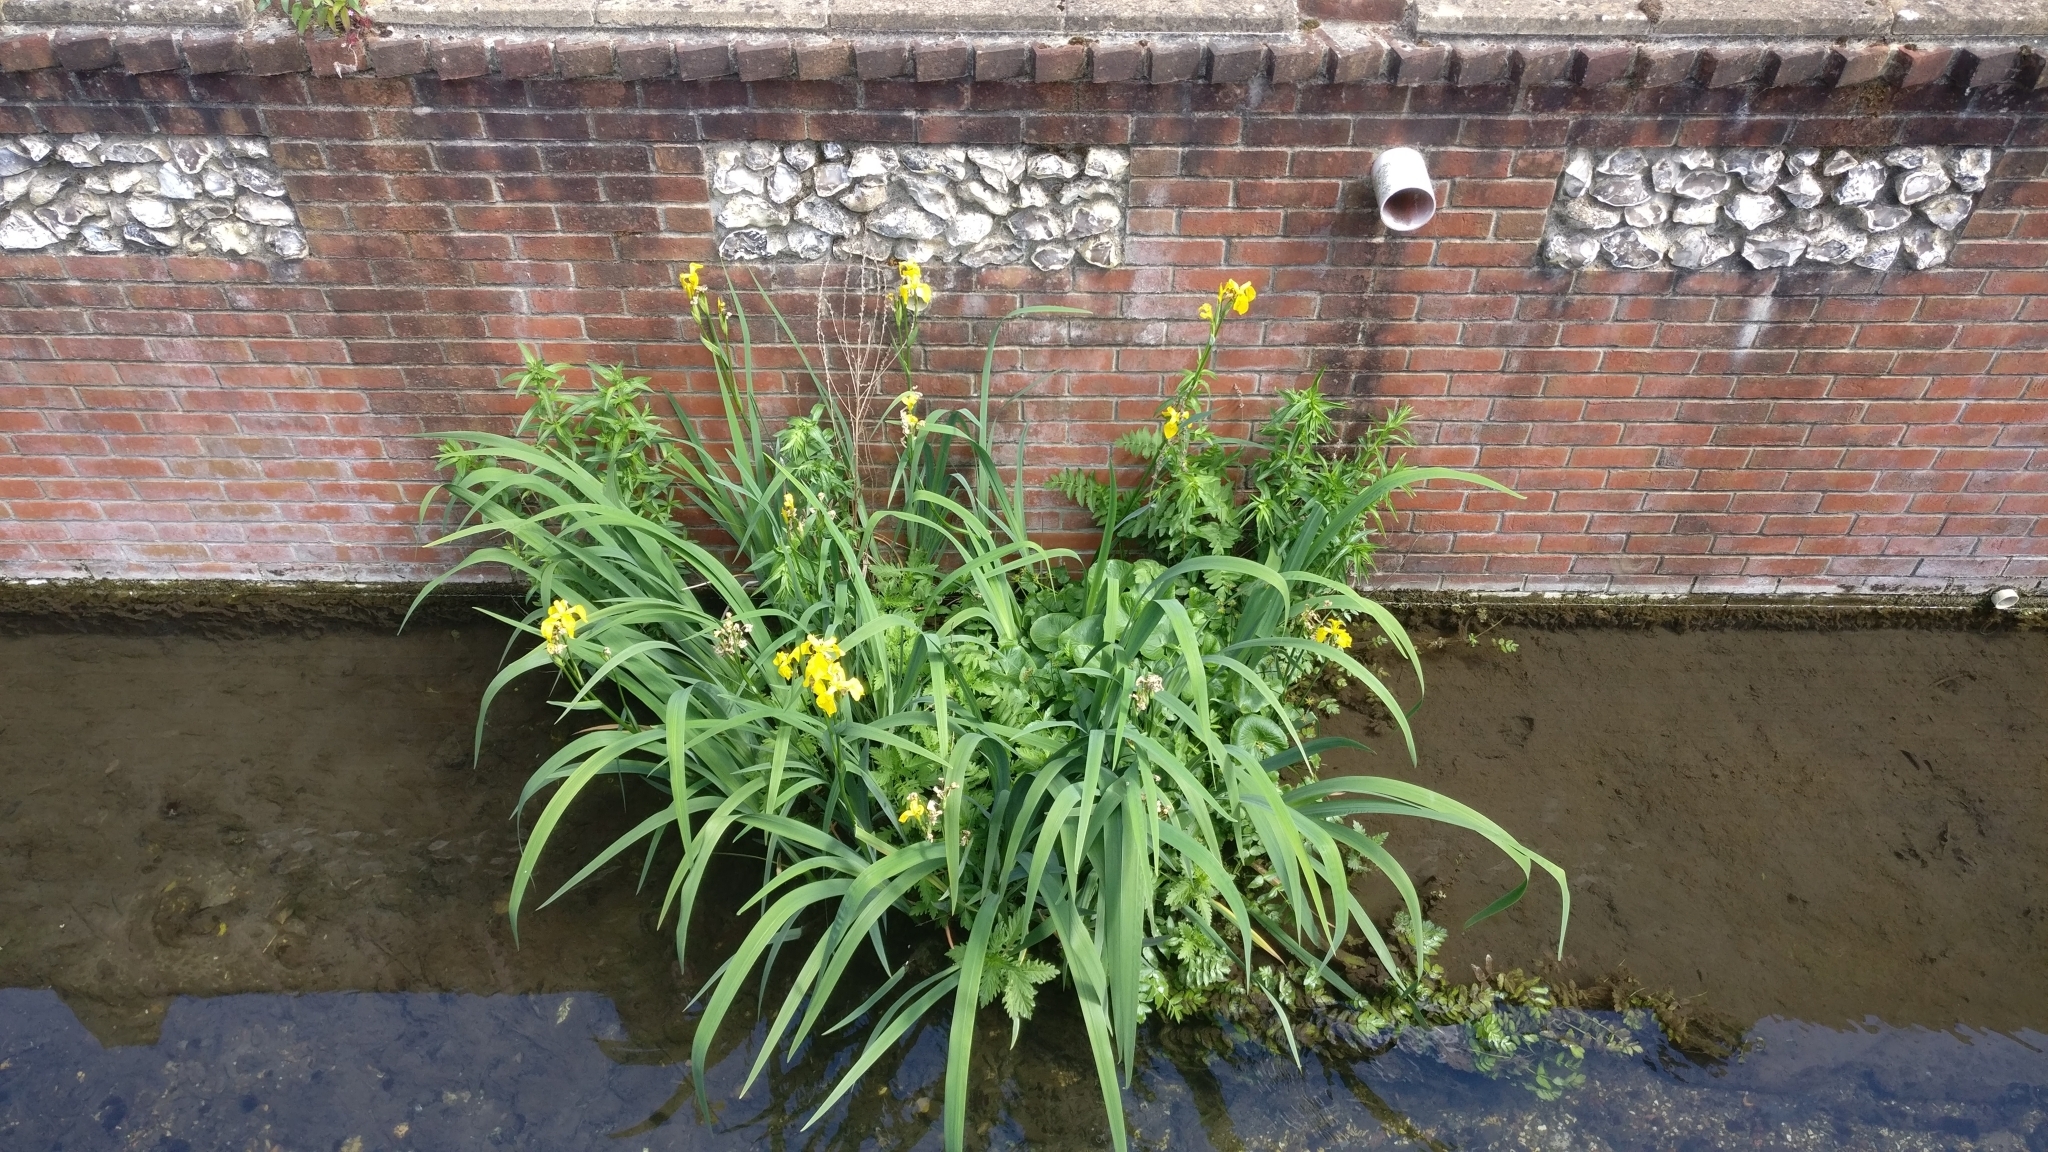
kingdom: Plantae
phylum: Tracheophyta
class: Liliopsida
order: Asparagales
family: Iridaceae
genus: Iris
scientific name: Iris pseudacorus
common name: Yellow flag
